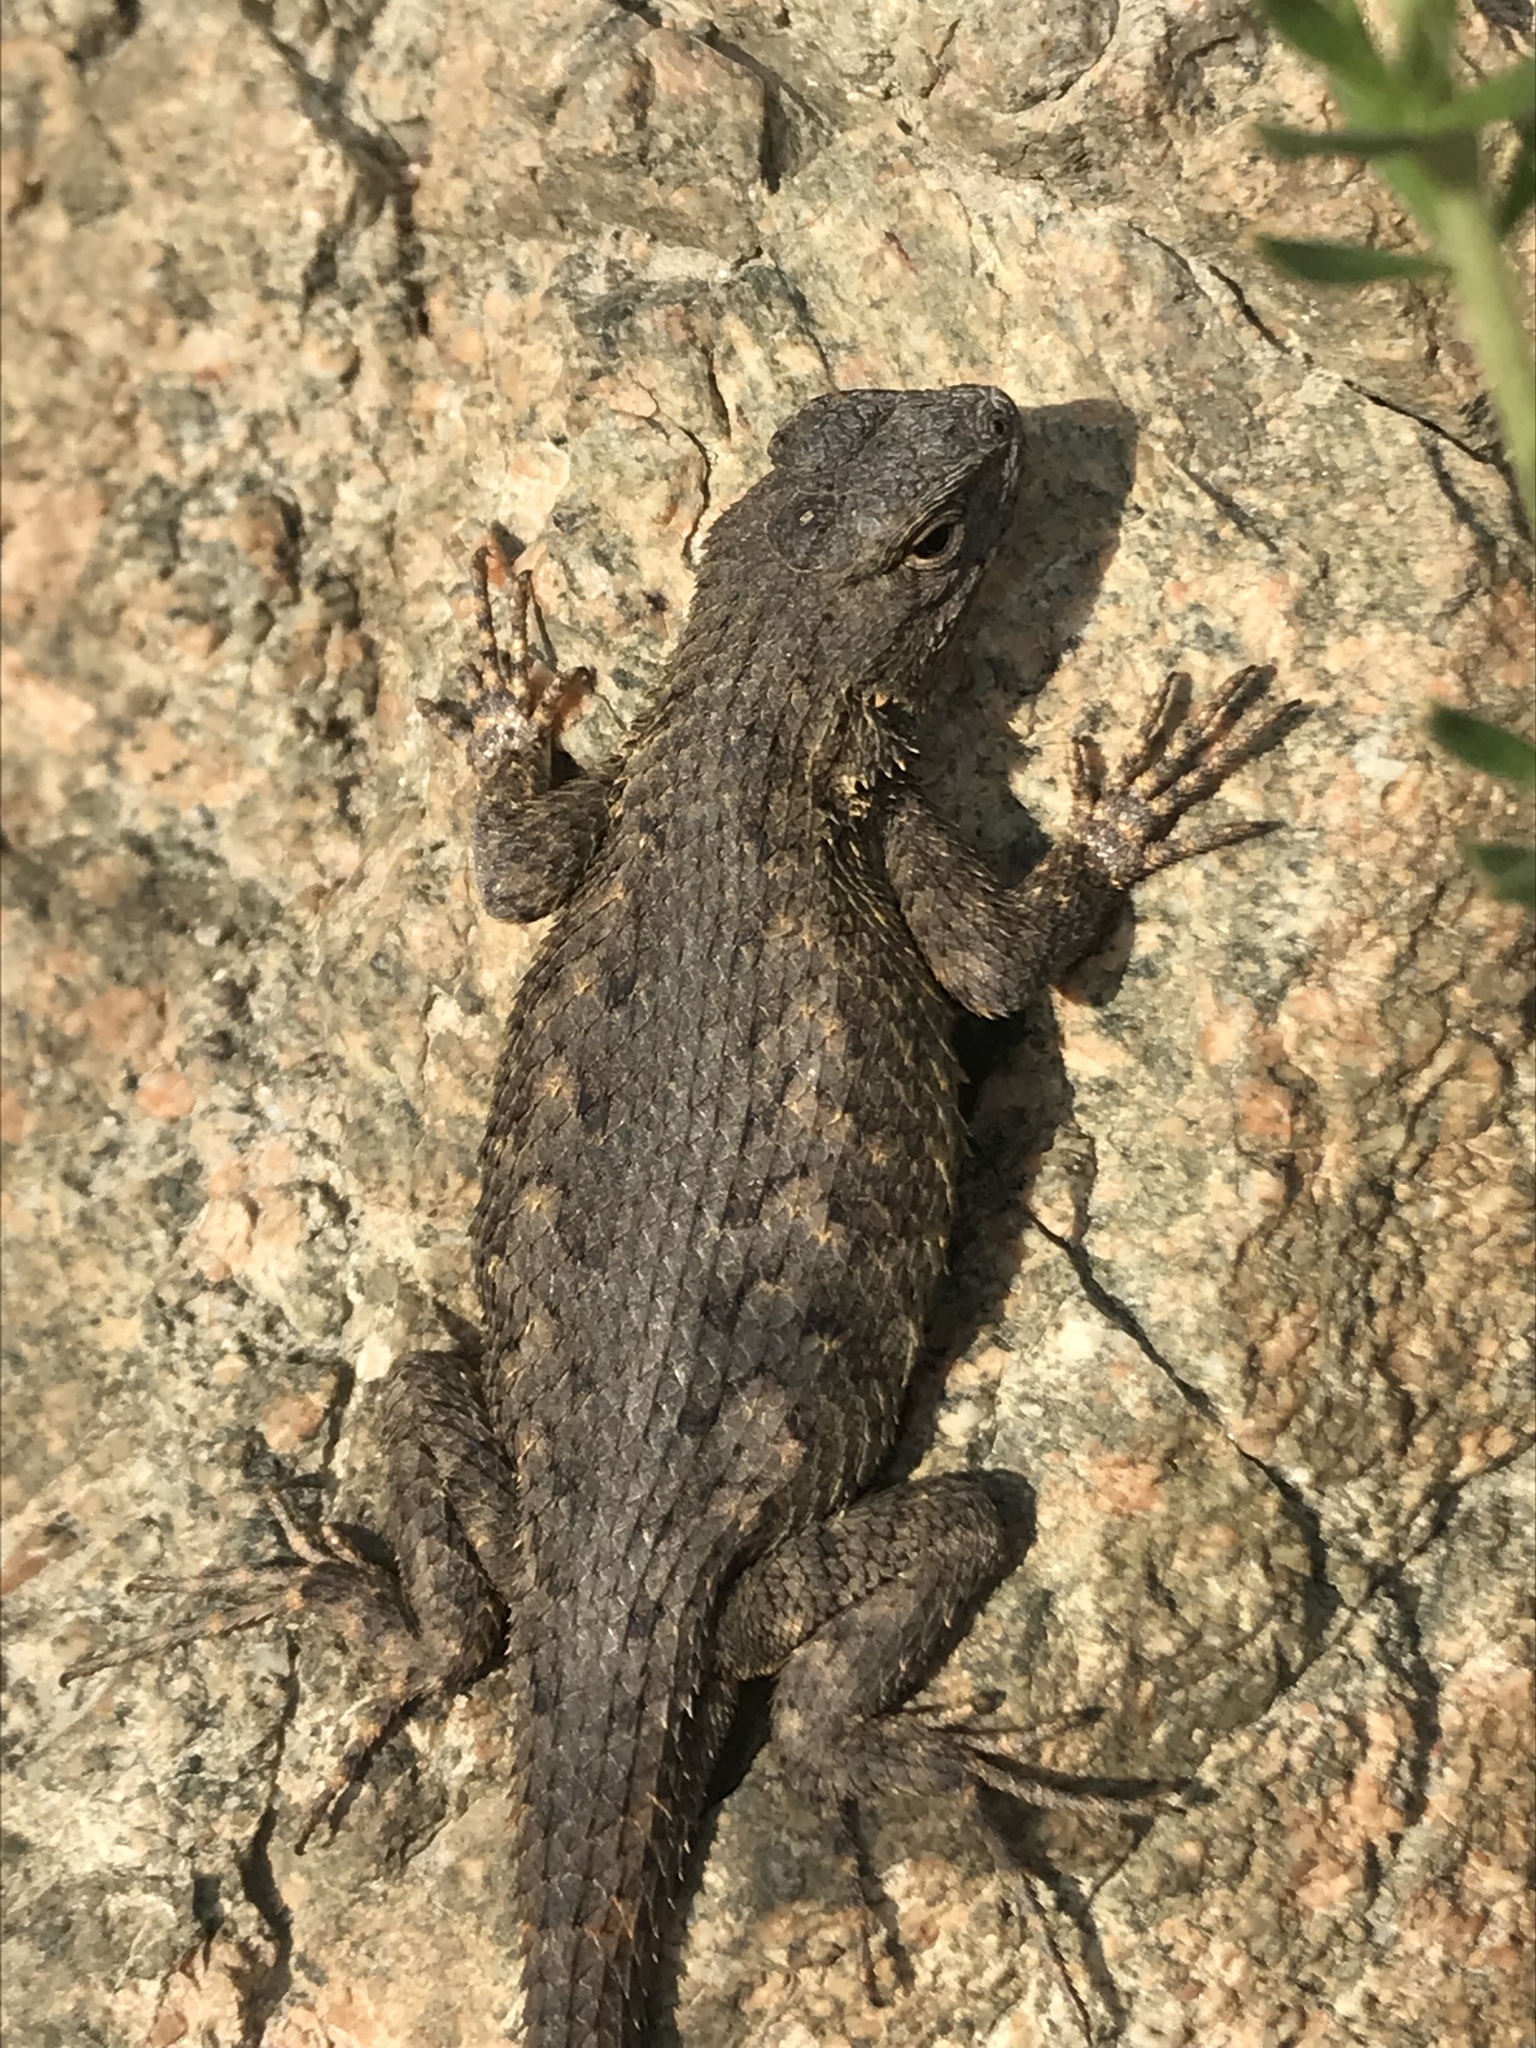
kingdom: Animalia
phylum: Chordata
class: Squamata
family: Phrynosomatidae
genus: Sceloporus
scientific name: Sceloporus occidentalis
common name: Western fence lizard
